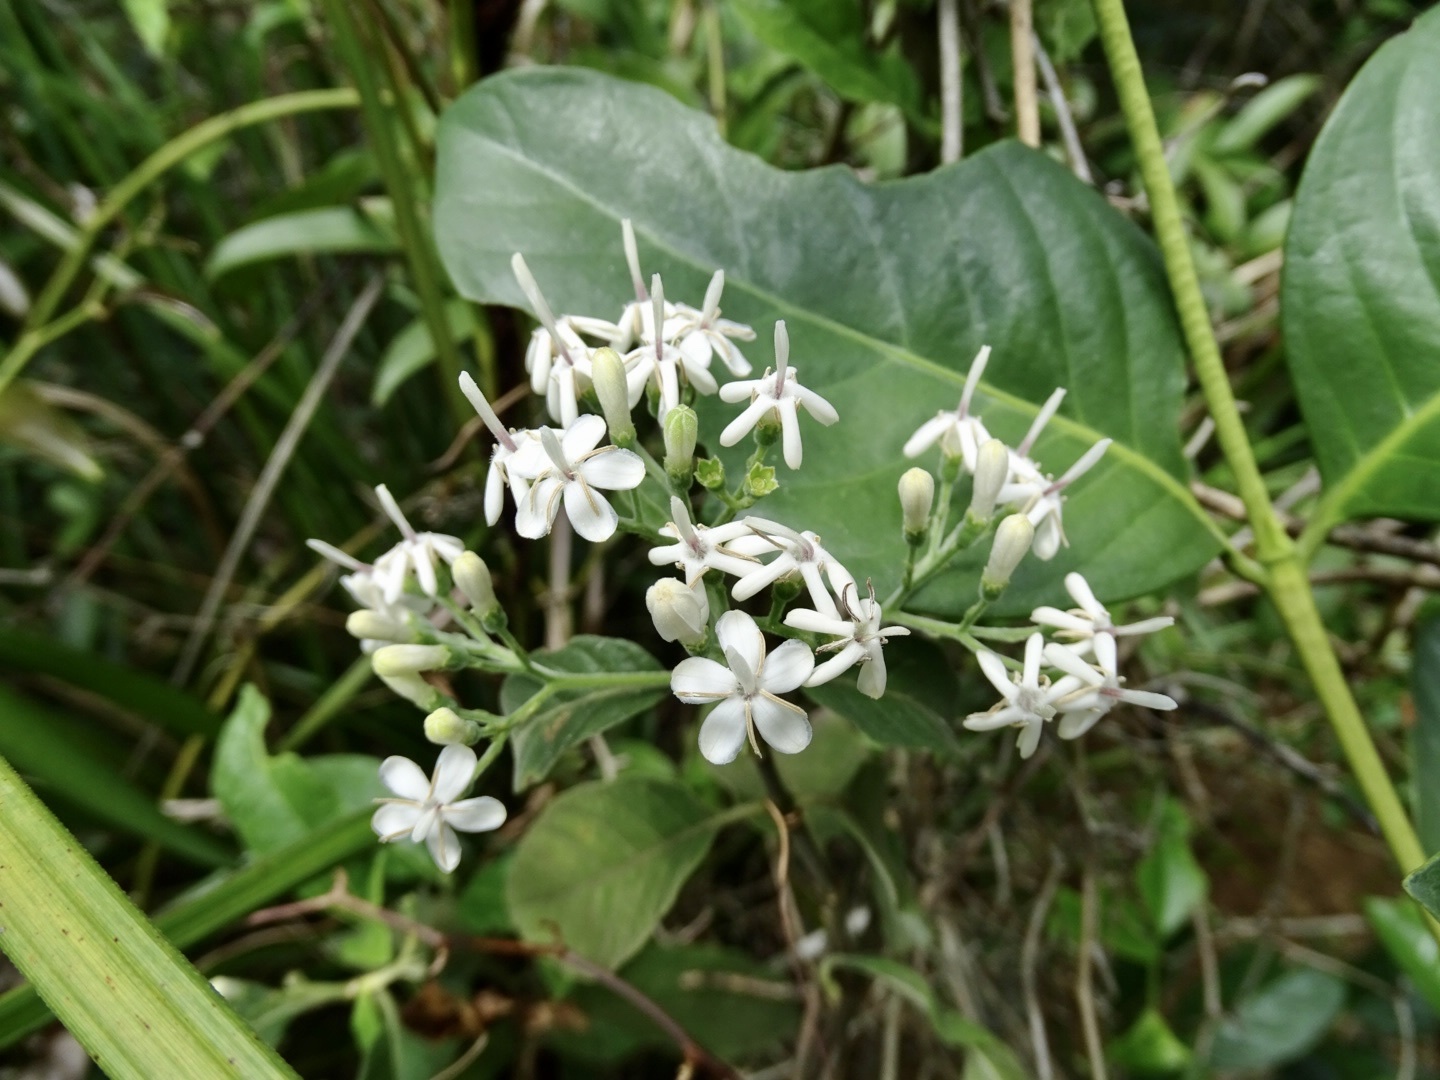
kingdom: Plantae
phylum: Tracheophyta
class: Magnoliopsida
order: Gentianales
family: Rubiaceae
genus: Tarenna
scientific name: Tarenna mollissima
